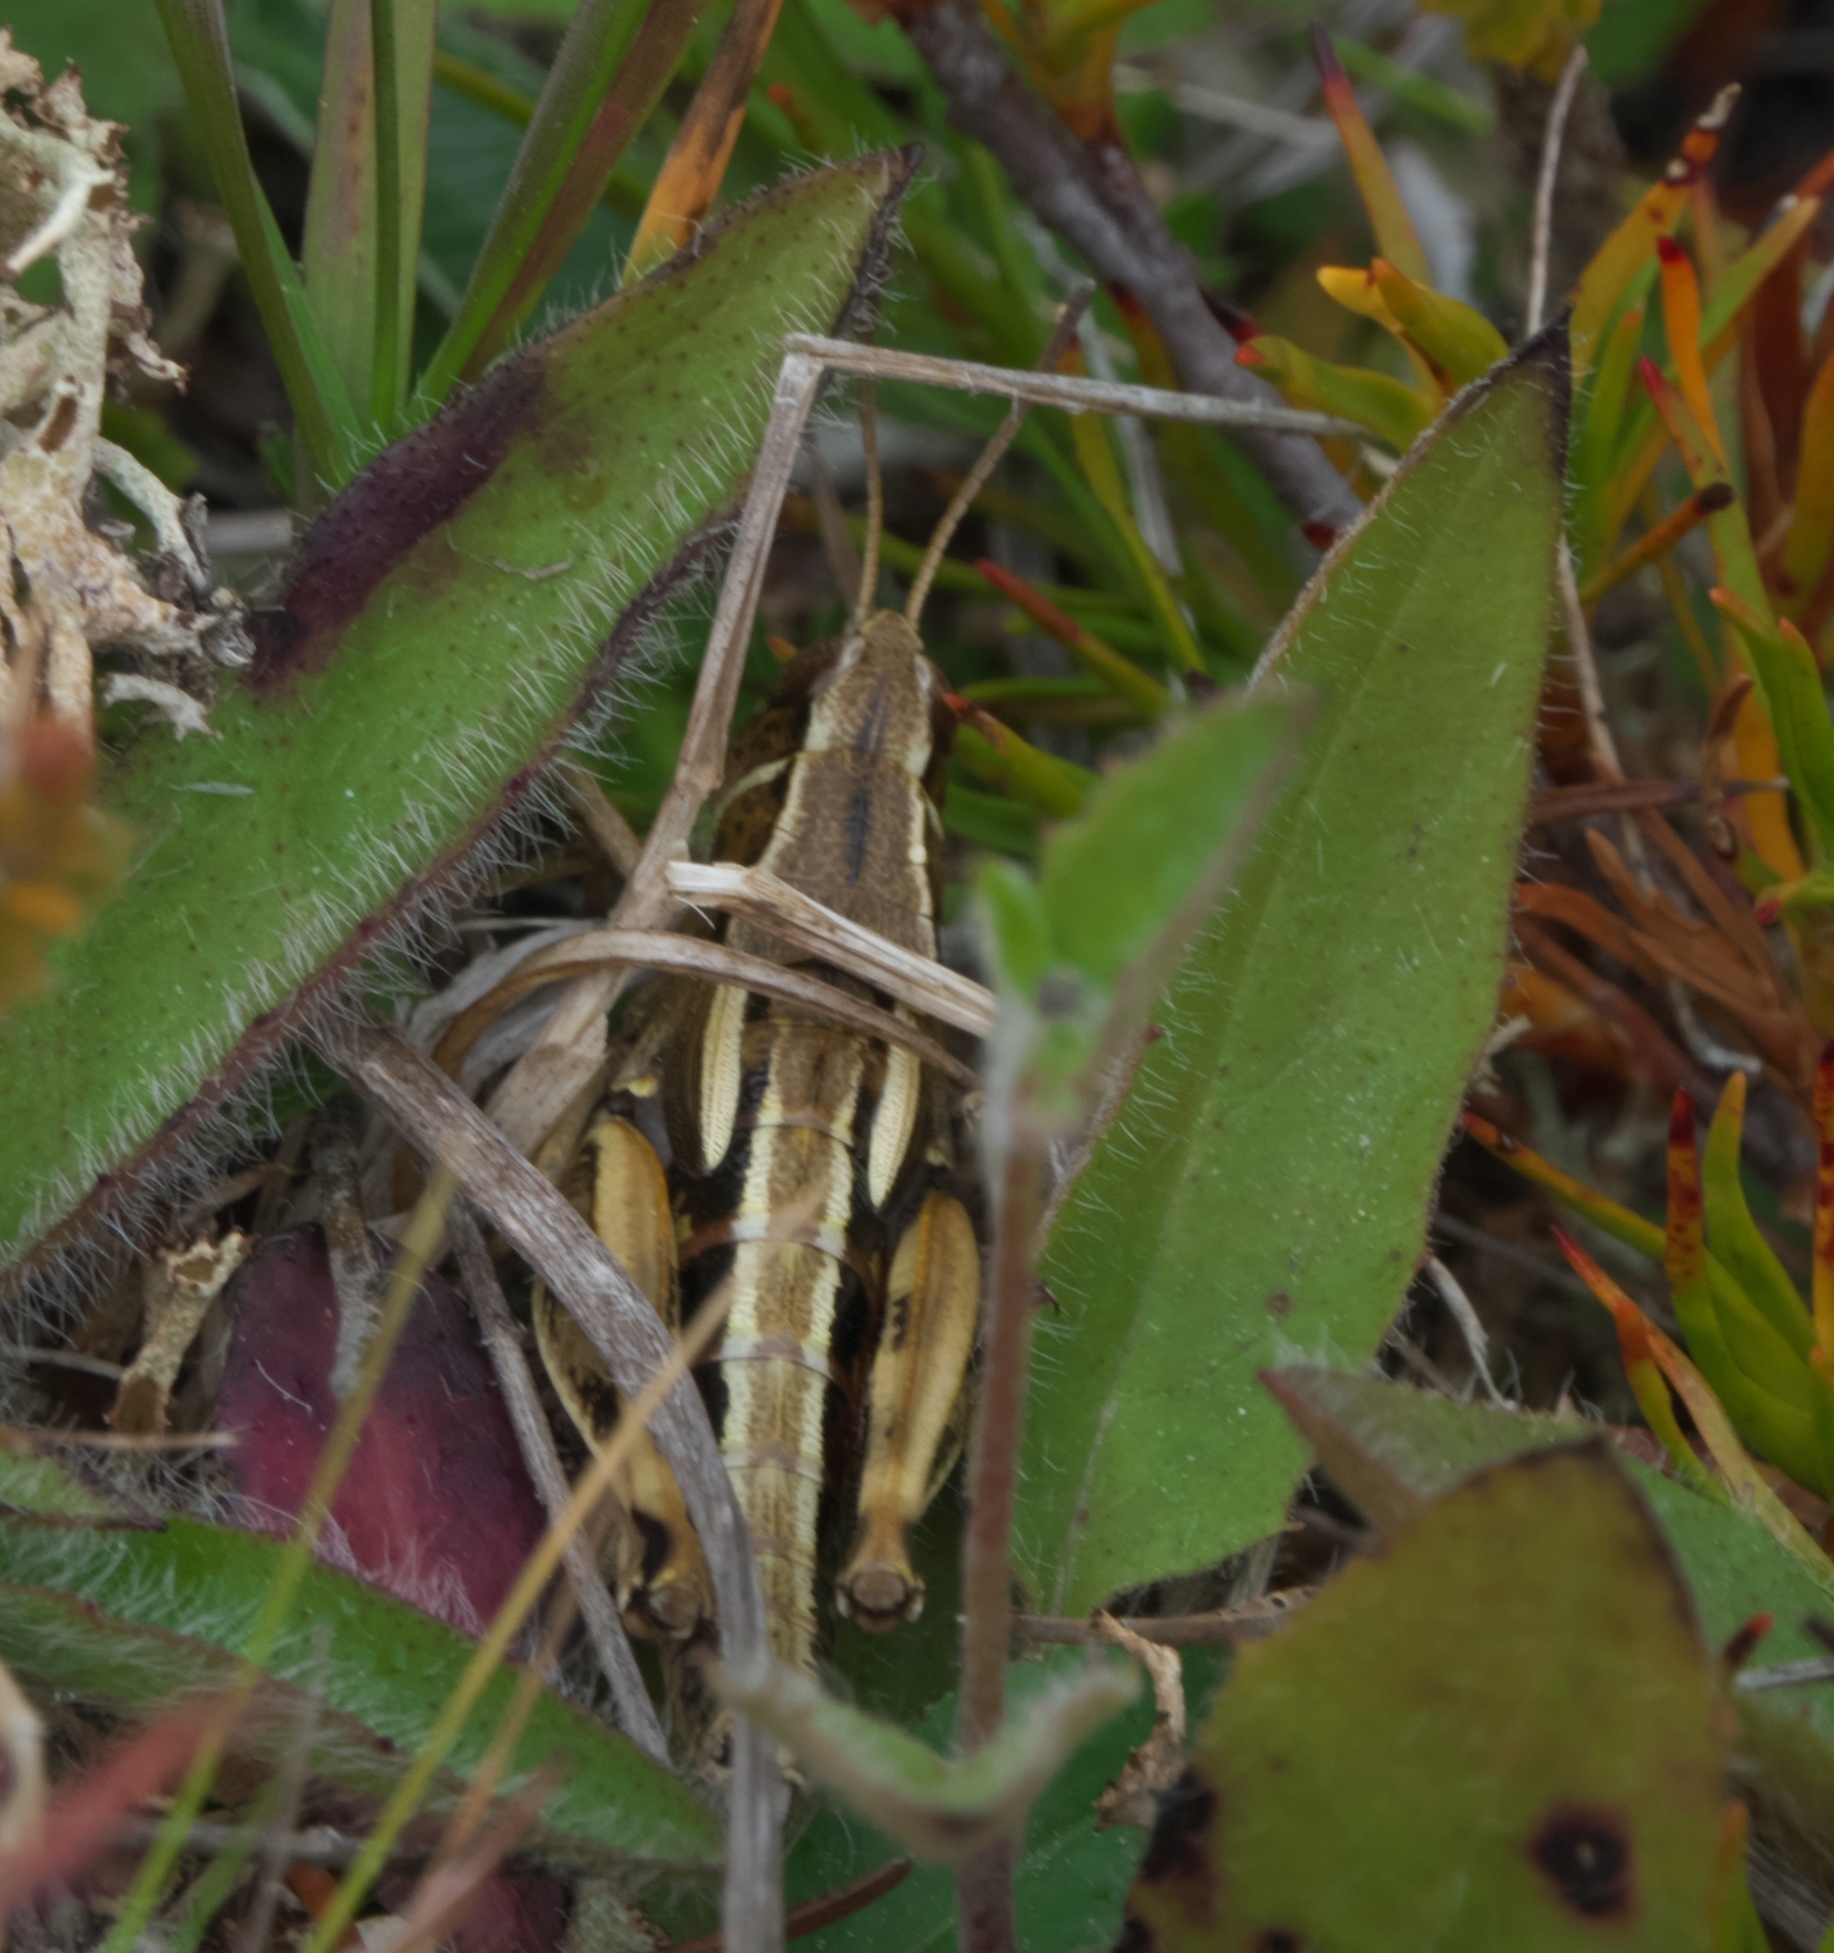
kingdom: Animalia
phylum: Arthropoda
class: Insecta
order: Orthoptera
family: Acrididae
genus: Sigaus
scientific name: Sigaus australis
